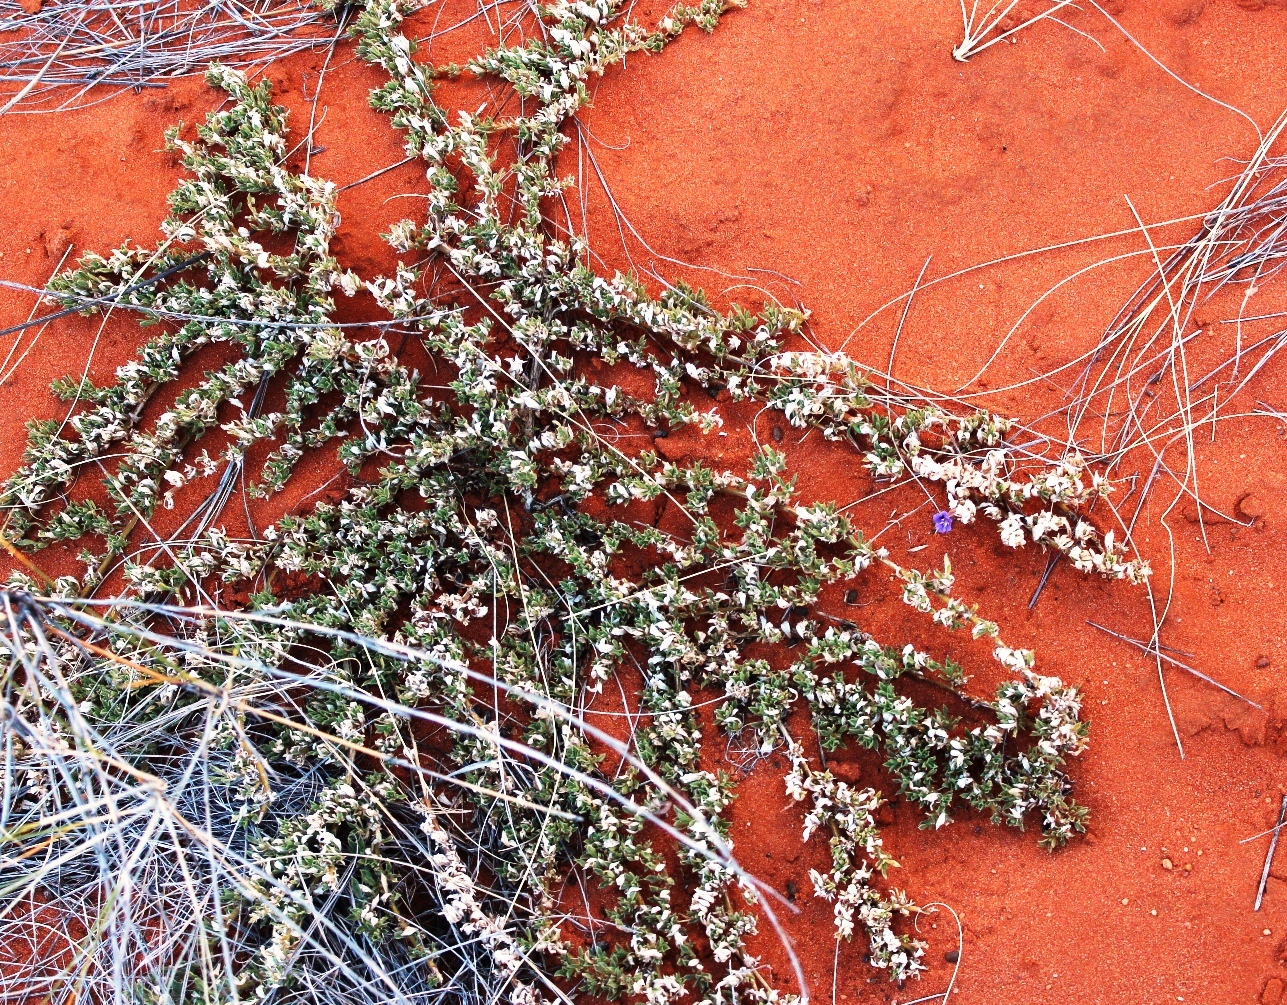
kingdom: Plantae
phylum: Tracheophyta
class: Magnoliopsida
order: Lamiales
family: Scrophulariaceae
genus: Aptosimum
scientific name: Aptosimum elongatum
